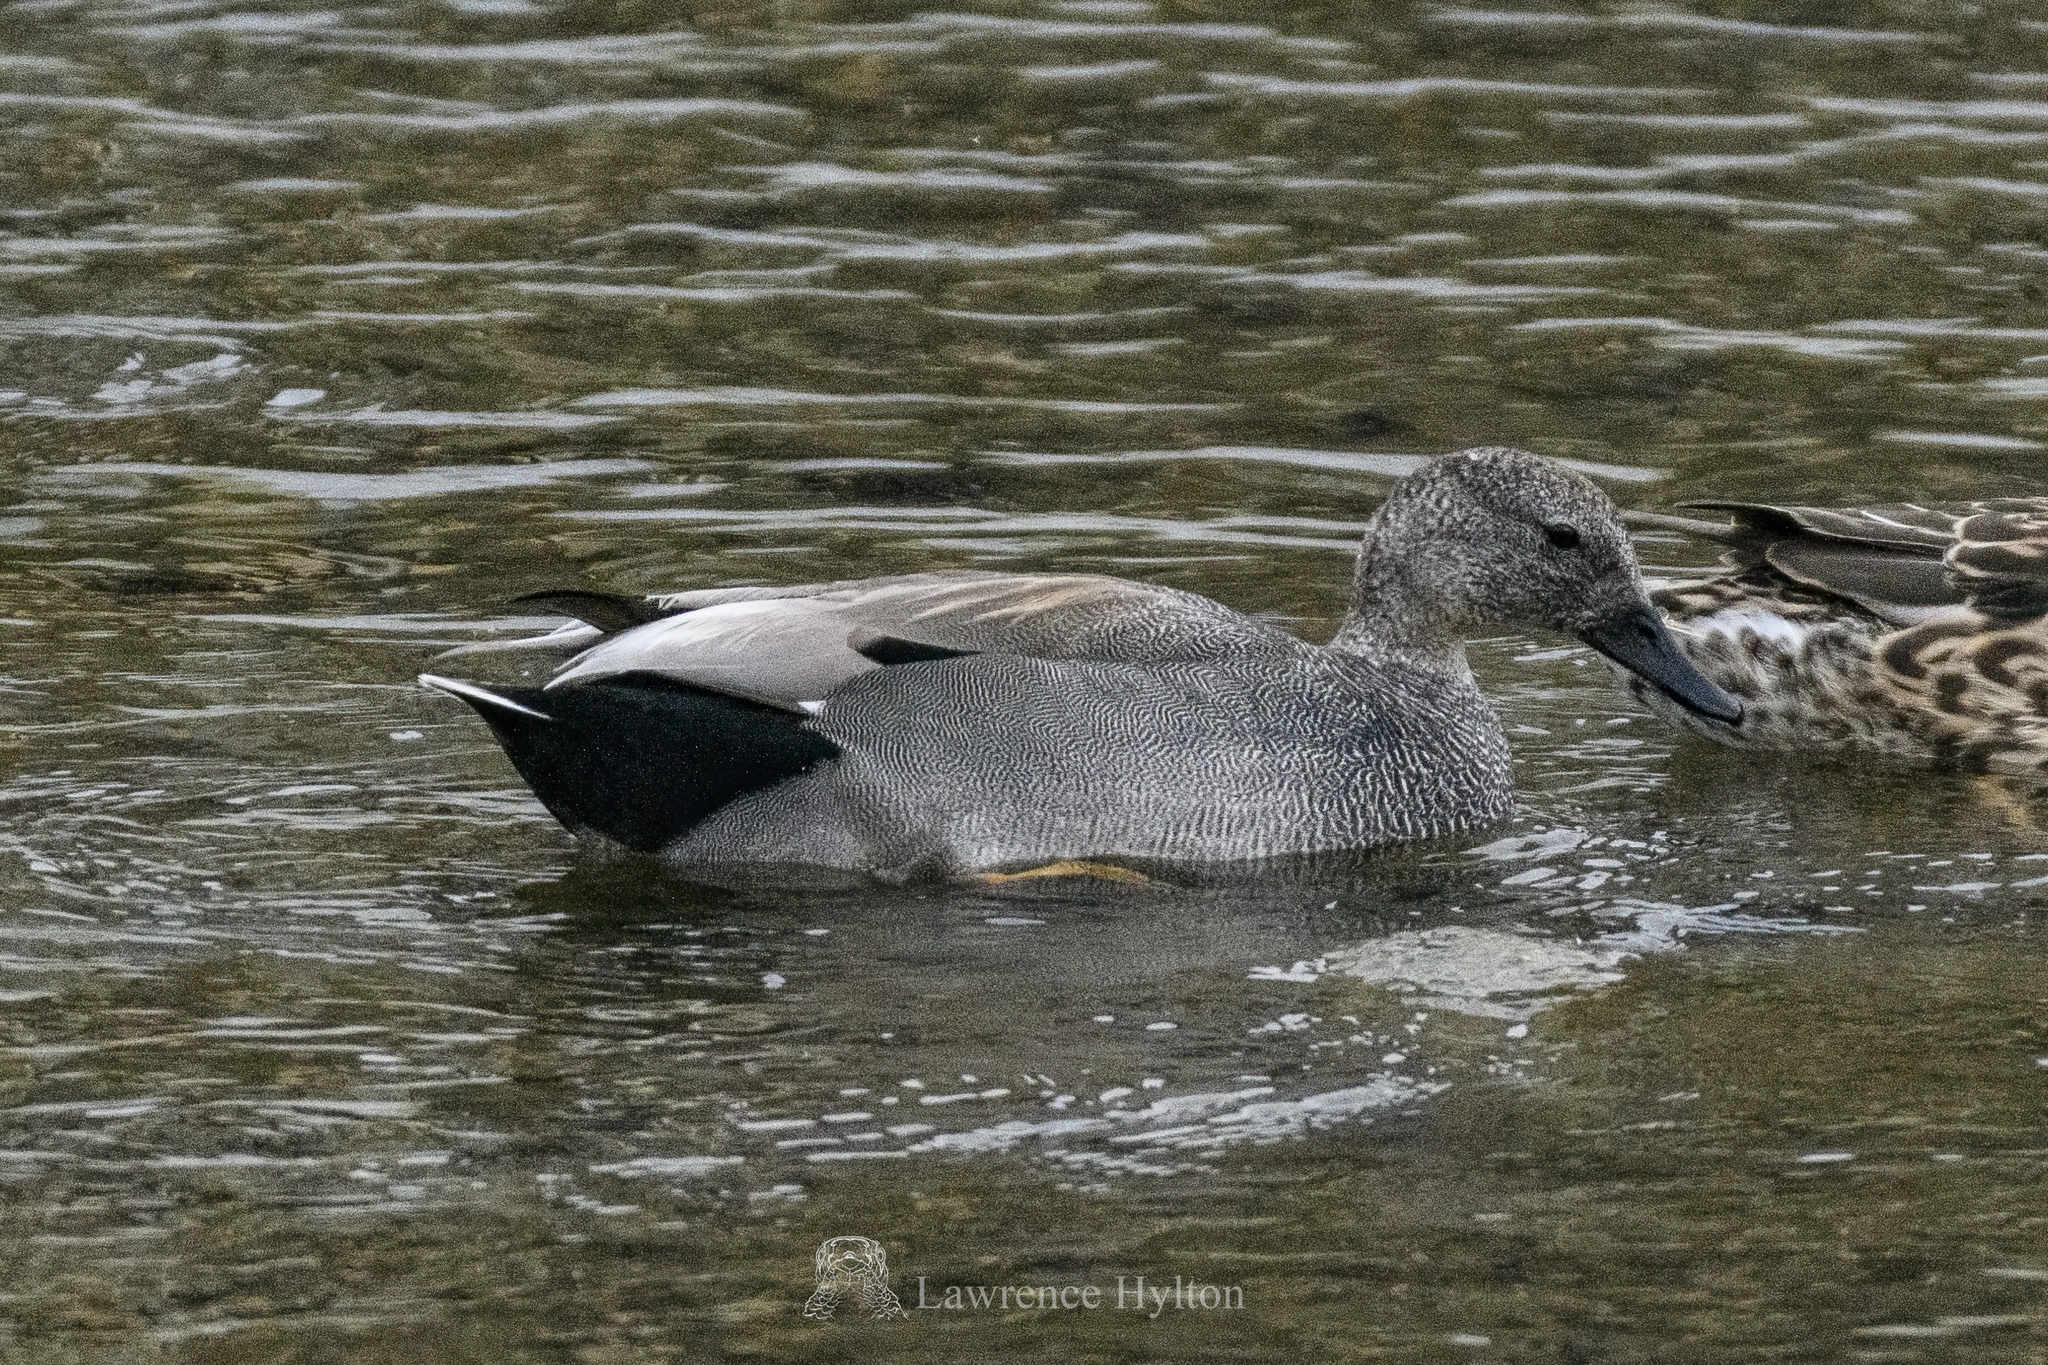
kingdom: Animalia
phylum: Chordata
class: Aves
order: Anseriformes
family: Anatidae
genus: Mareca
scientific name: Mareca strepera
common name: Gadwall
